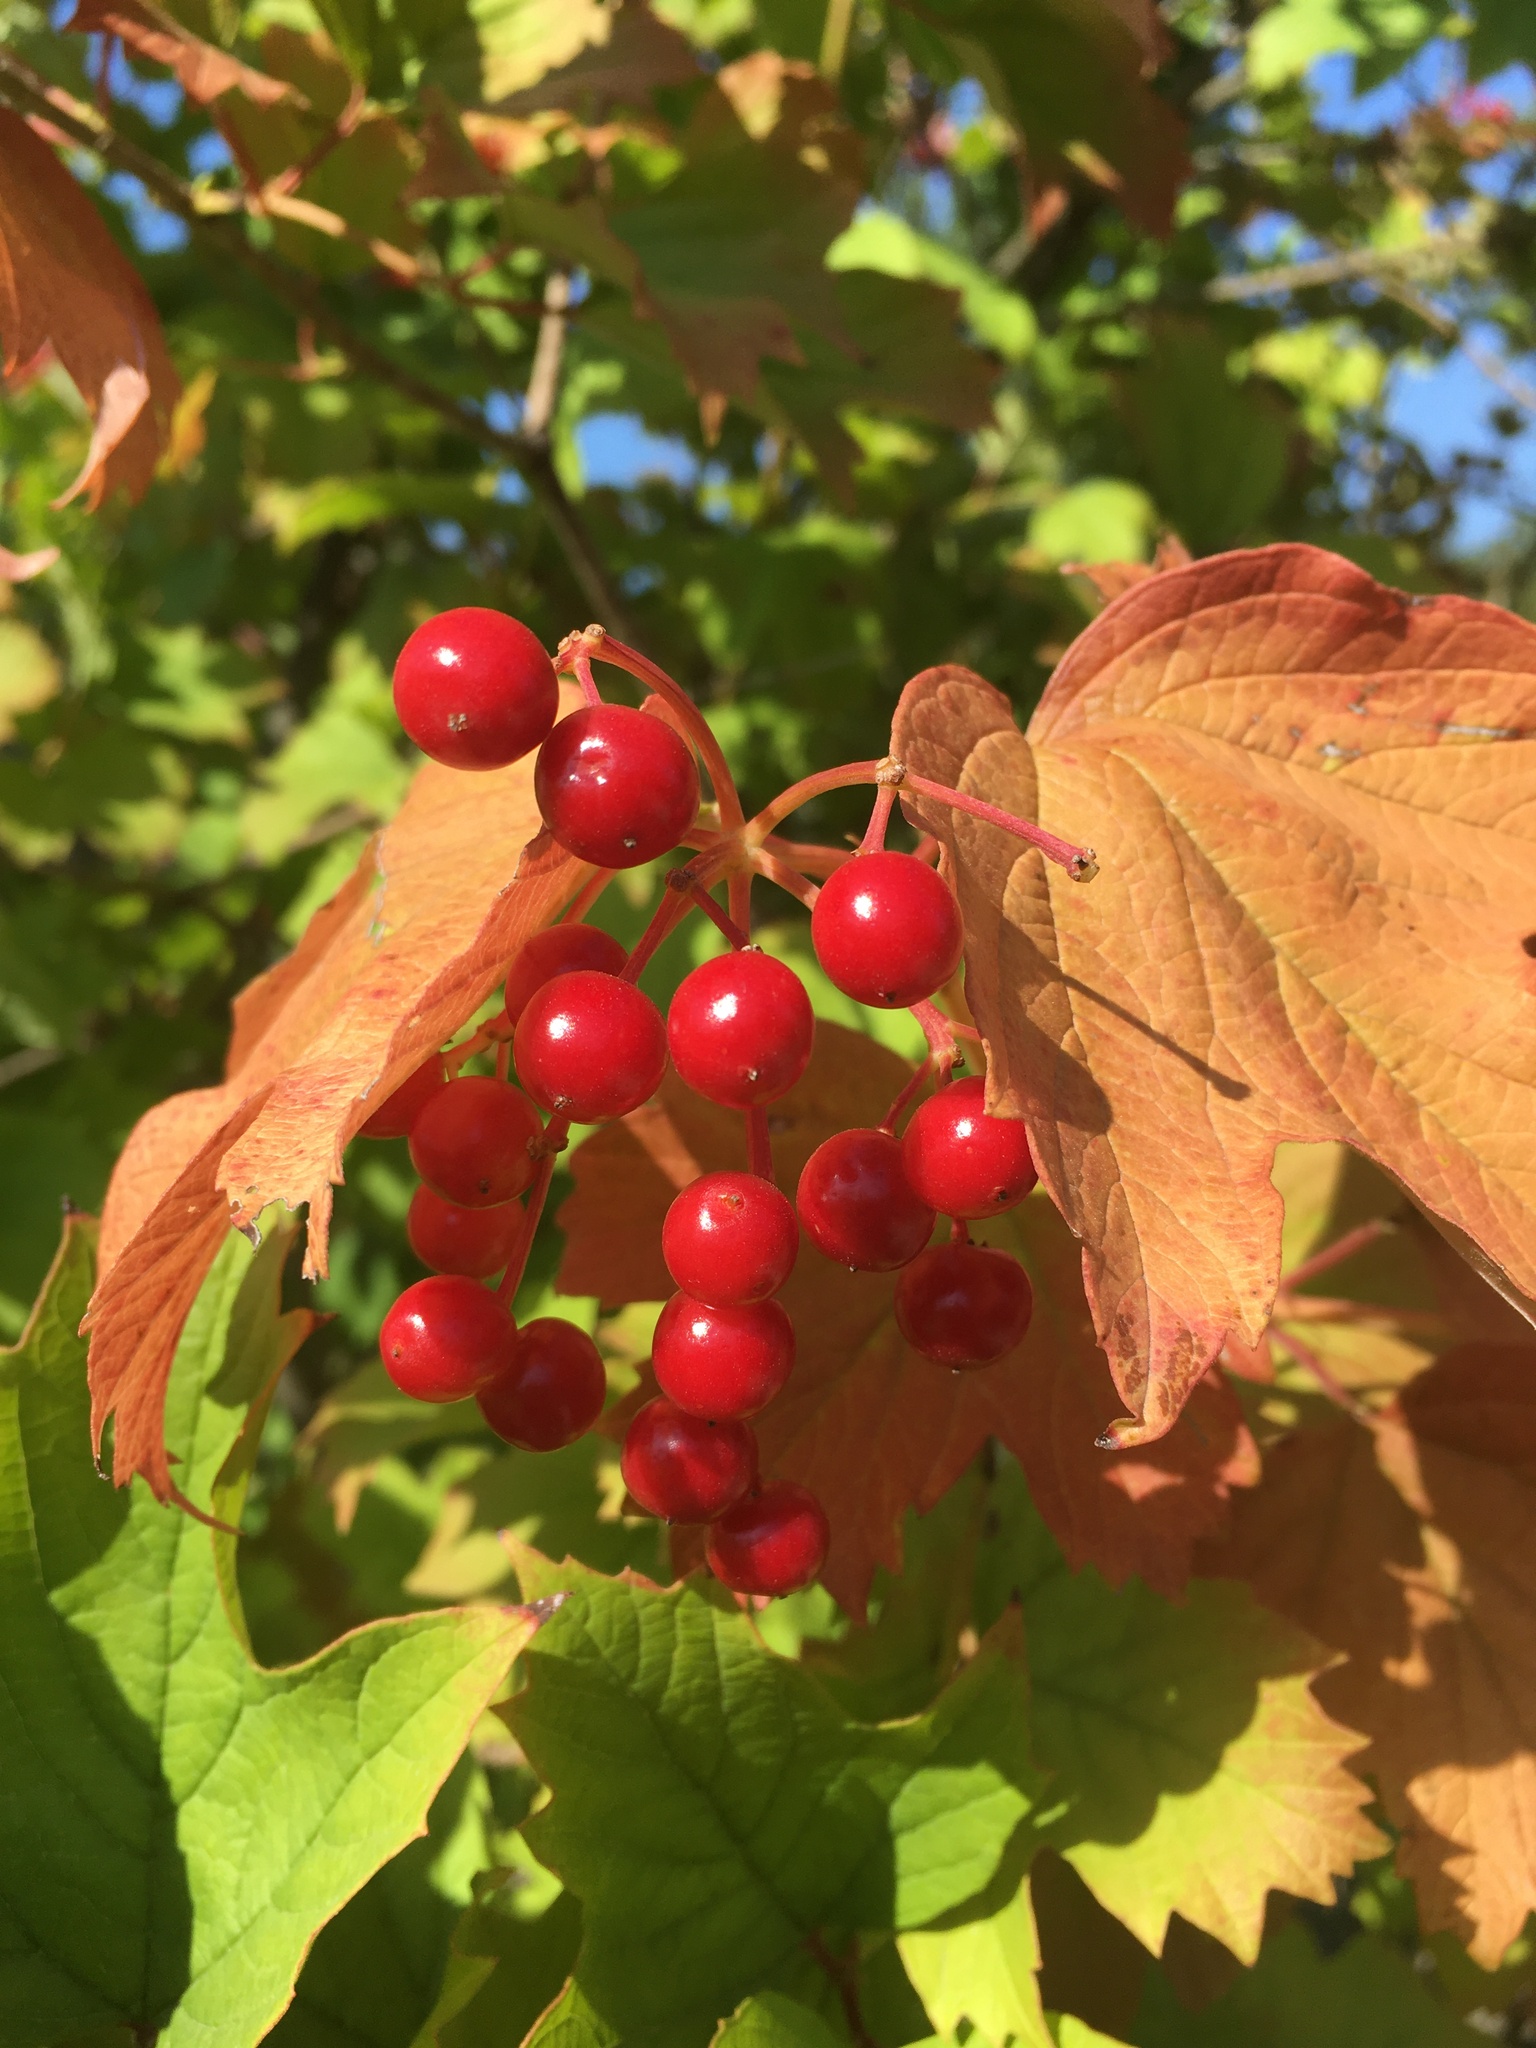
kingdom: Plantae
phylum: Tracheophyta
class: Magnoliopsida
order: Dipsacales
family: Viburnaceae
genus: Viburnum
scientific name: Viburnum opulus
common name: Guelder-rose
